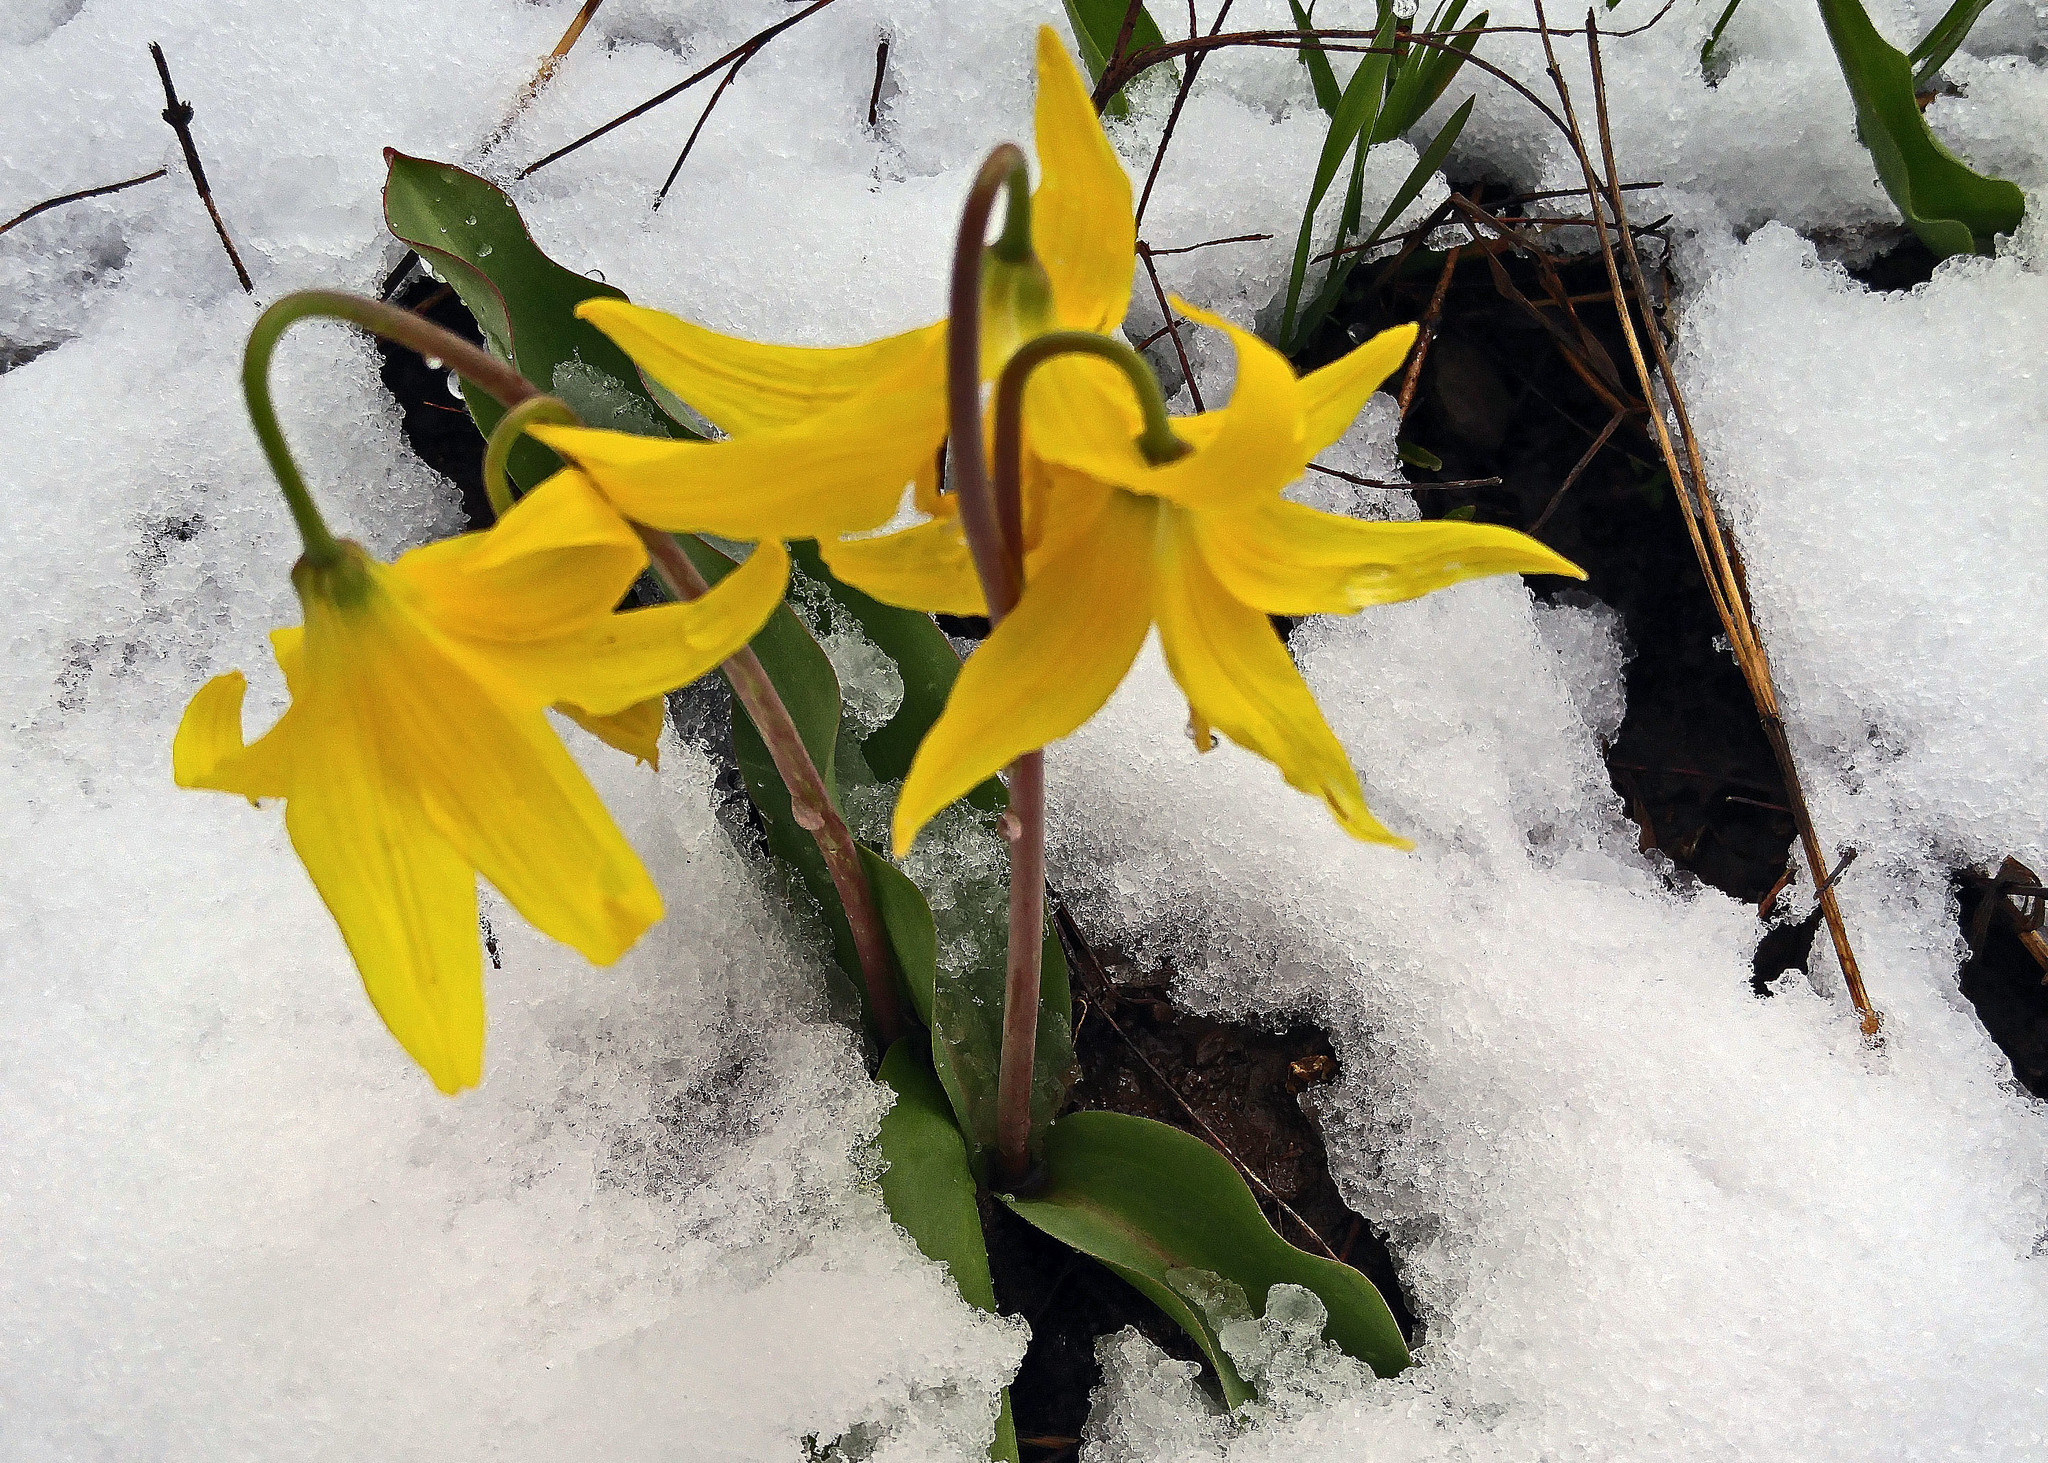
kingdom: Plantae
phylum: Tracheophyta
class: Liliopsida
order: Liliales
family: Liliaceae
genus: Erythronium
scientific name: Erythronium grandiflorum
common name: Avalanche-lily
